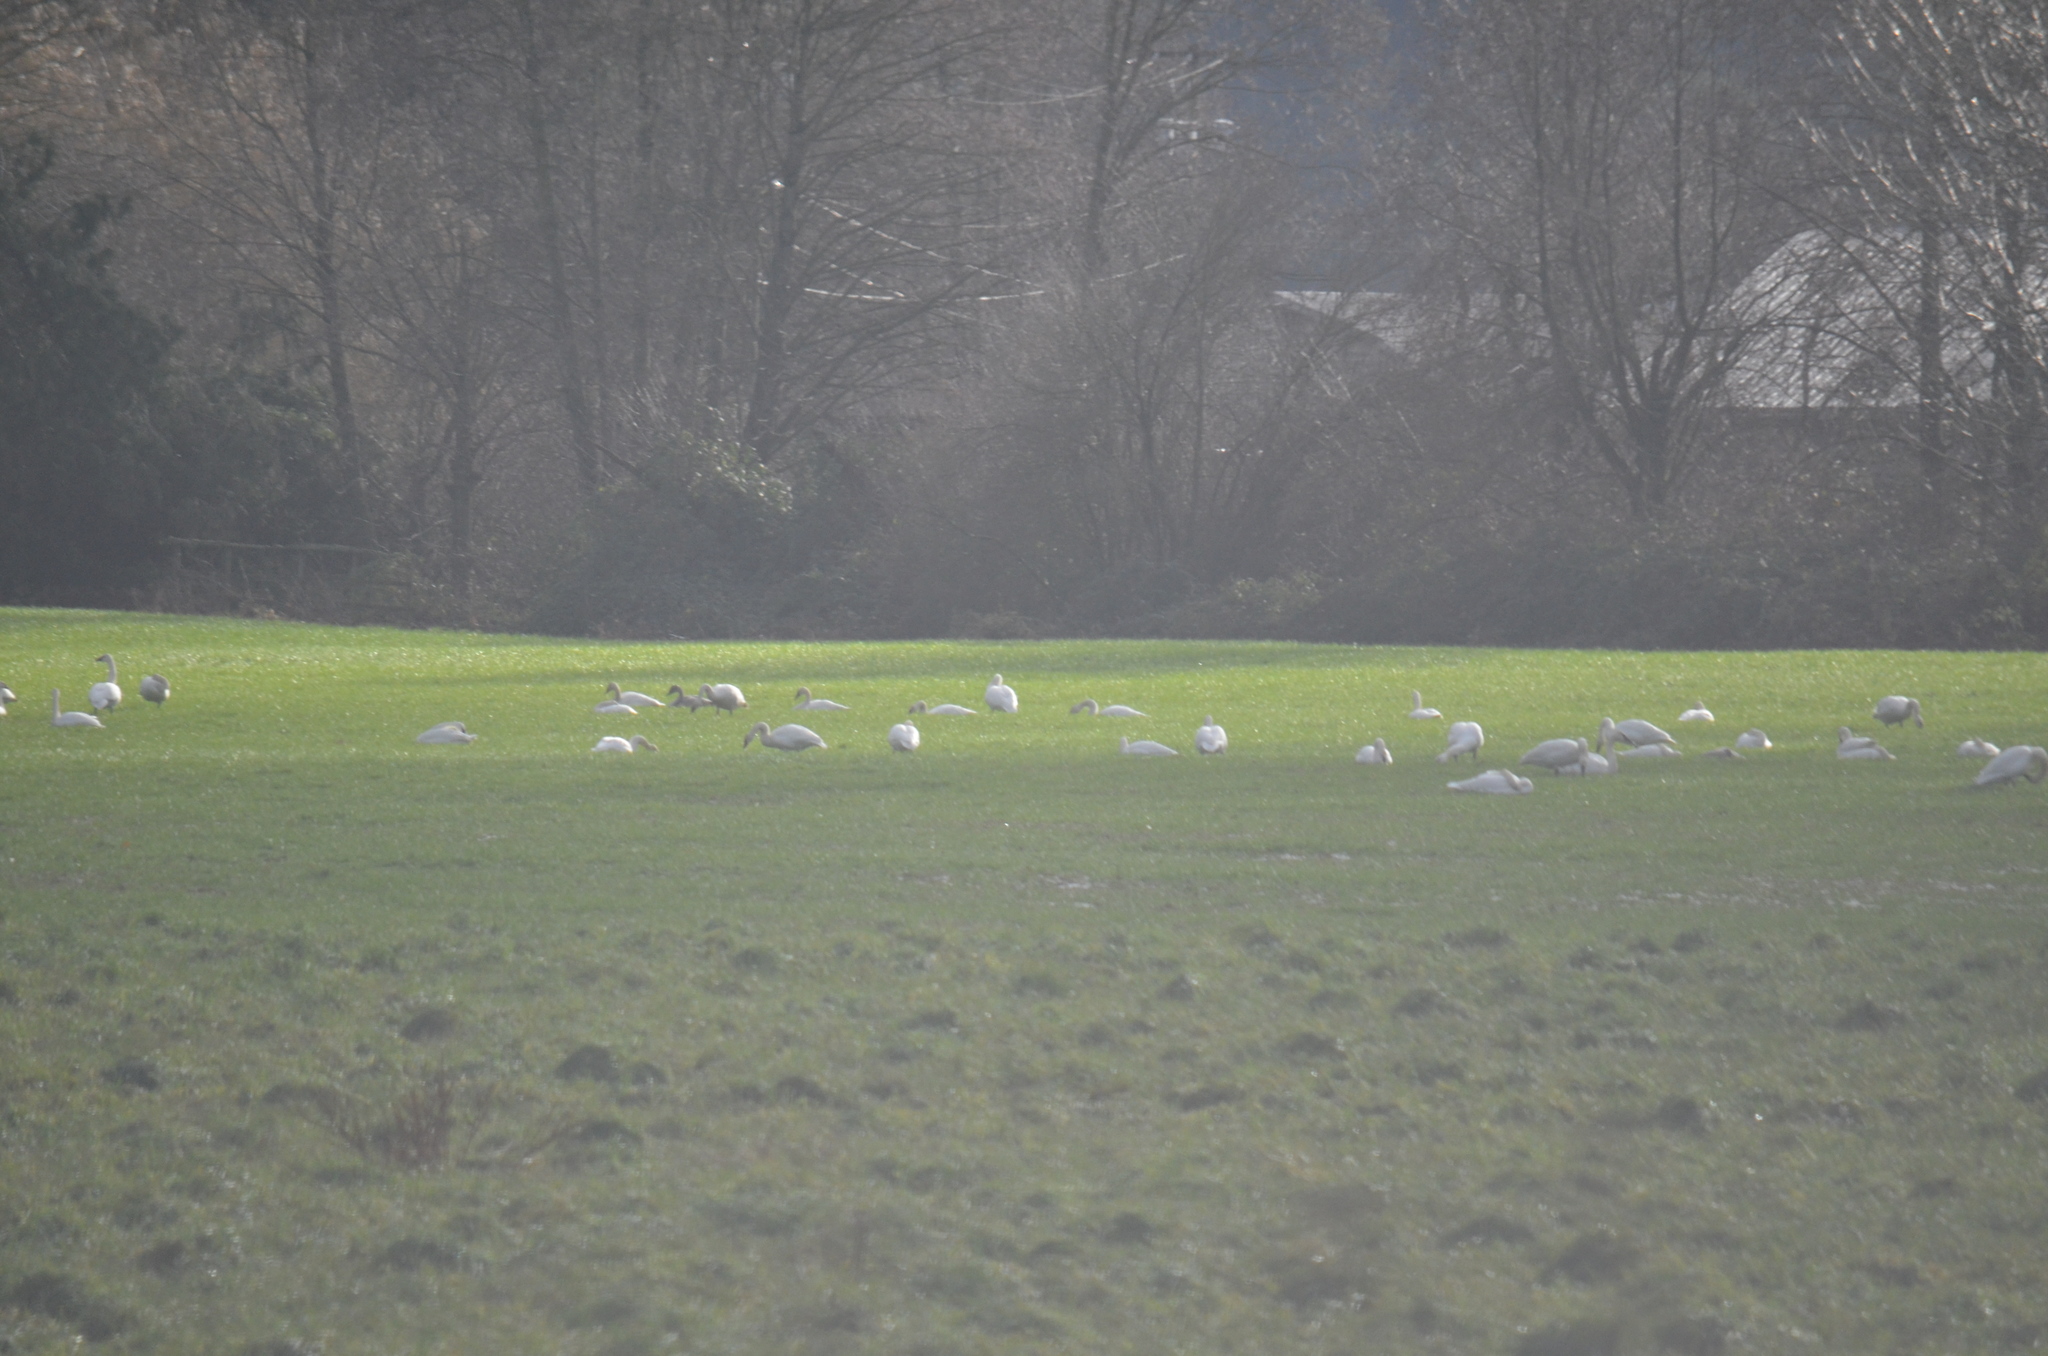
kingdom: Animalia
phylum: Chordata
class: Aves
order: Anseriformes
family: Anatidae
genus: Cygnus
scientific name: Cygnus buccinator
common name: Trumpeter swan
